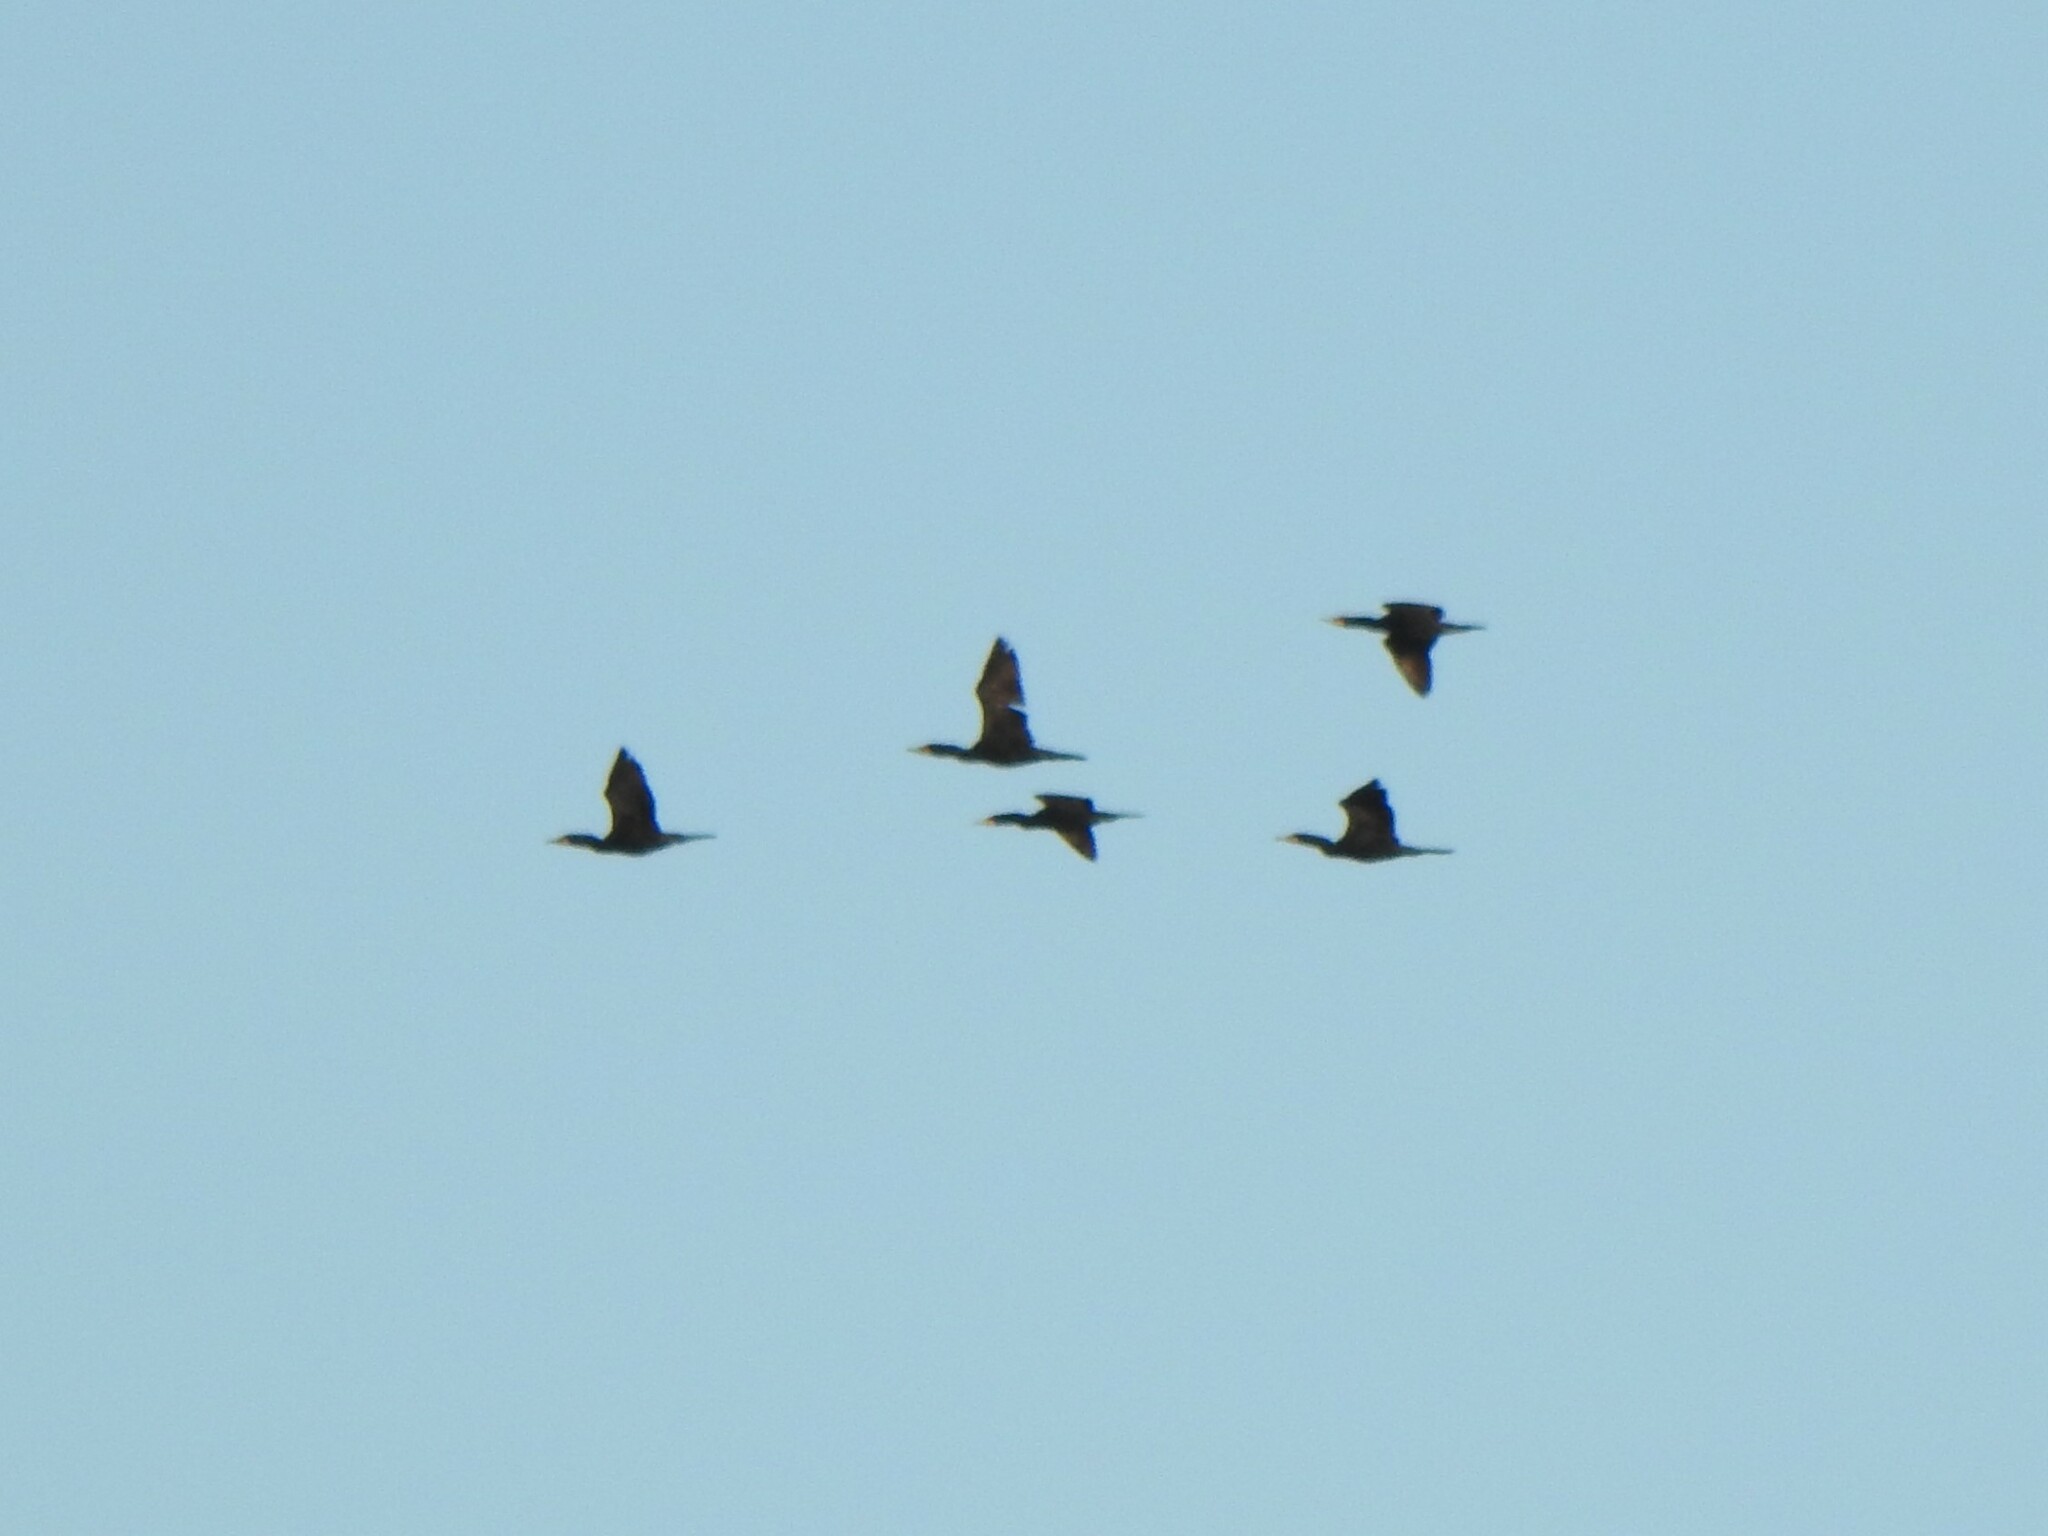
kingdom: Animalia
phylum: Chordata
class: Aves
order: Suliformes
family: Phalacrocoracidae
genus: Phalacrocorax
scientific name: Phalacrocorax auritus
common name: Double-crested cormorant
